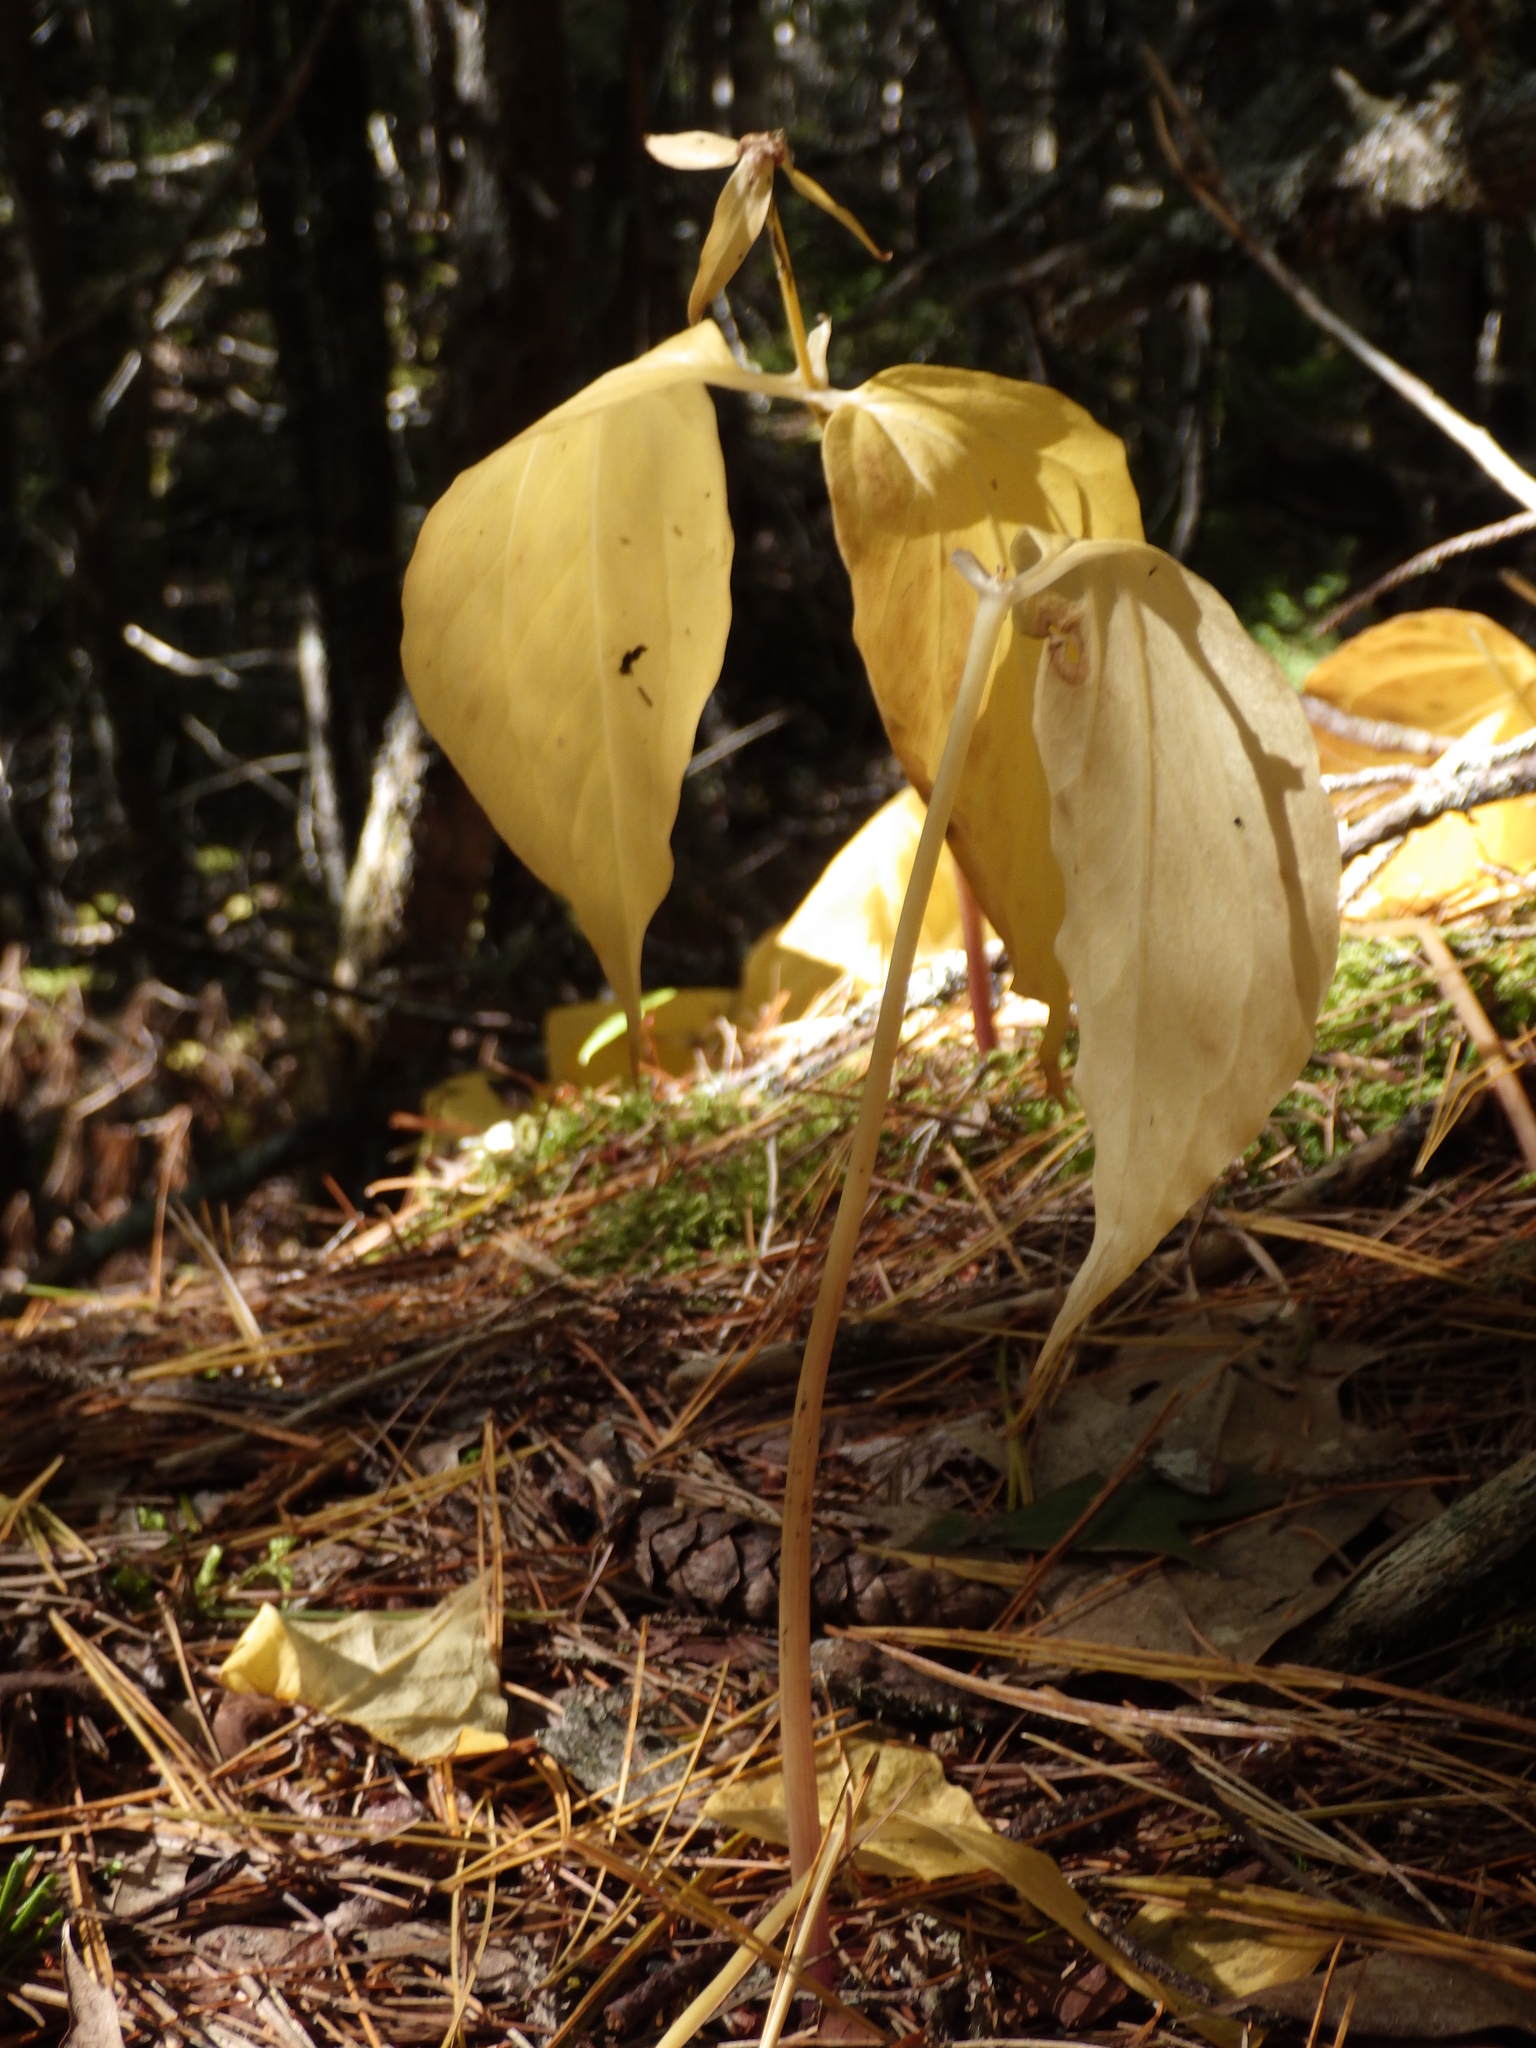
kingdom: Plantae
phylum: Tracheophyta
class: Liliopsida
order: Liliales
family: Melanthiaceae
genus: Trillium
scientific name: Trillium undulatum
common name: Paint trillium
